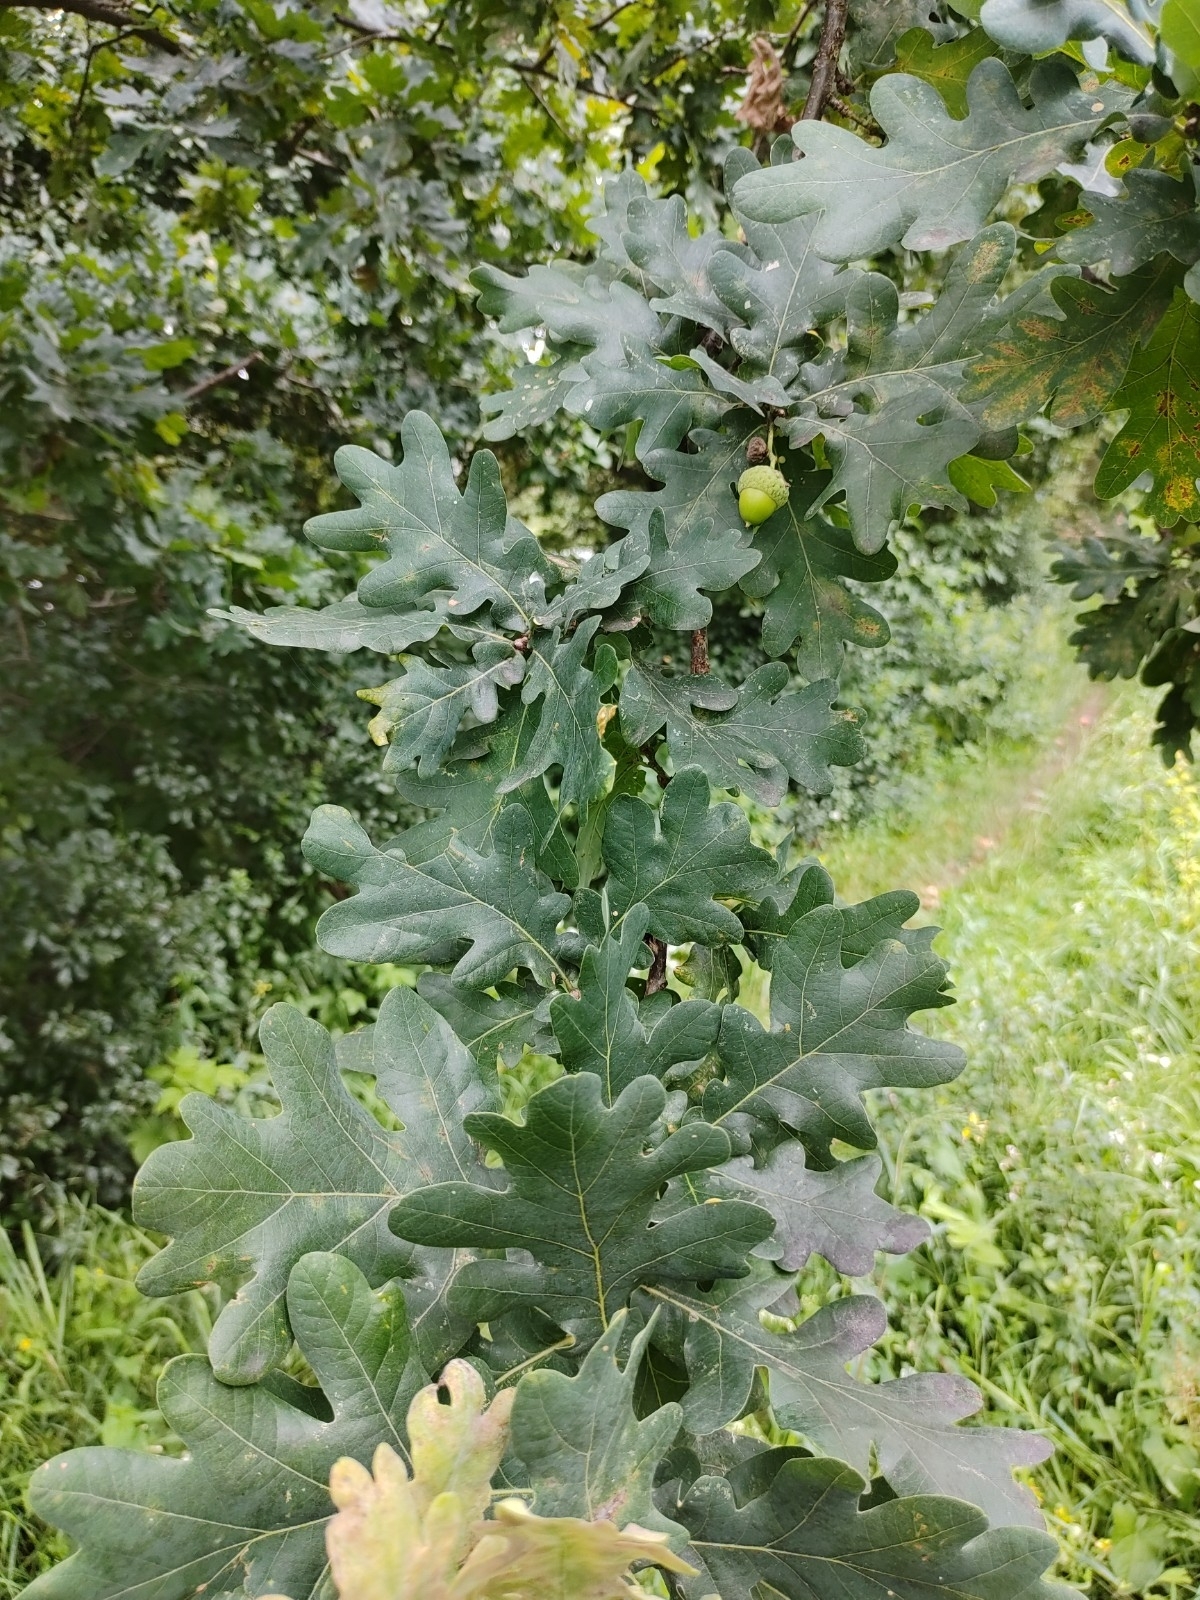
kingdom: Plantae
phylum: Tracheophyta
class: Magnoliopsida
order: Fagales
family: Fagaceae
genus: Quercus
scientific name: Quercus robur
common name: Pedunculate oak
